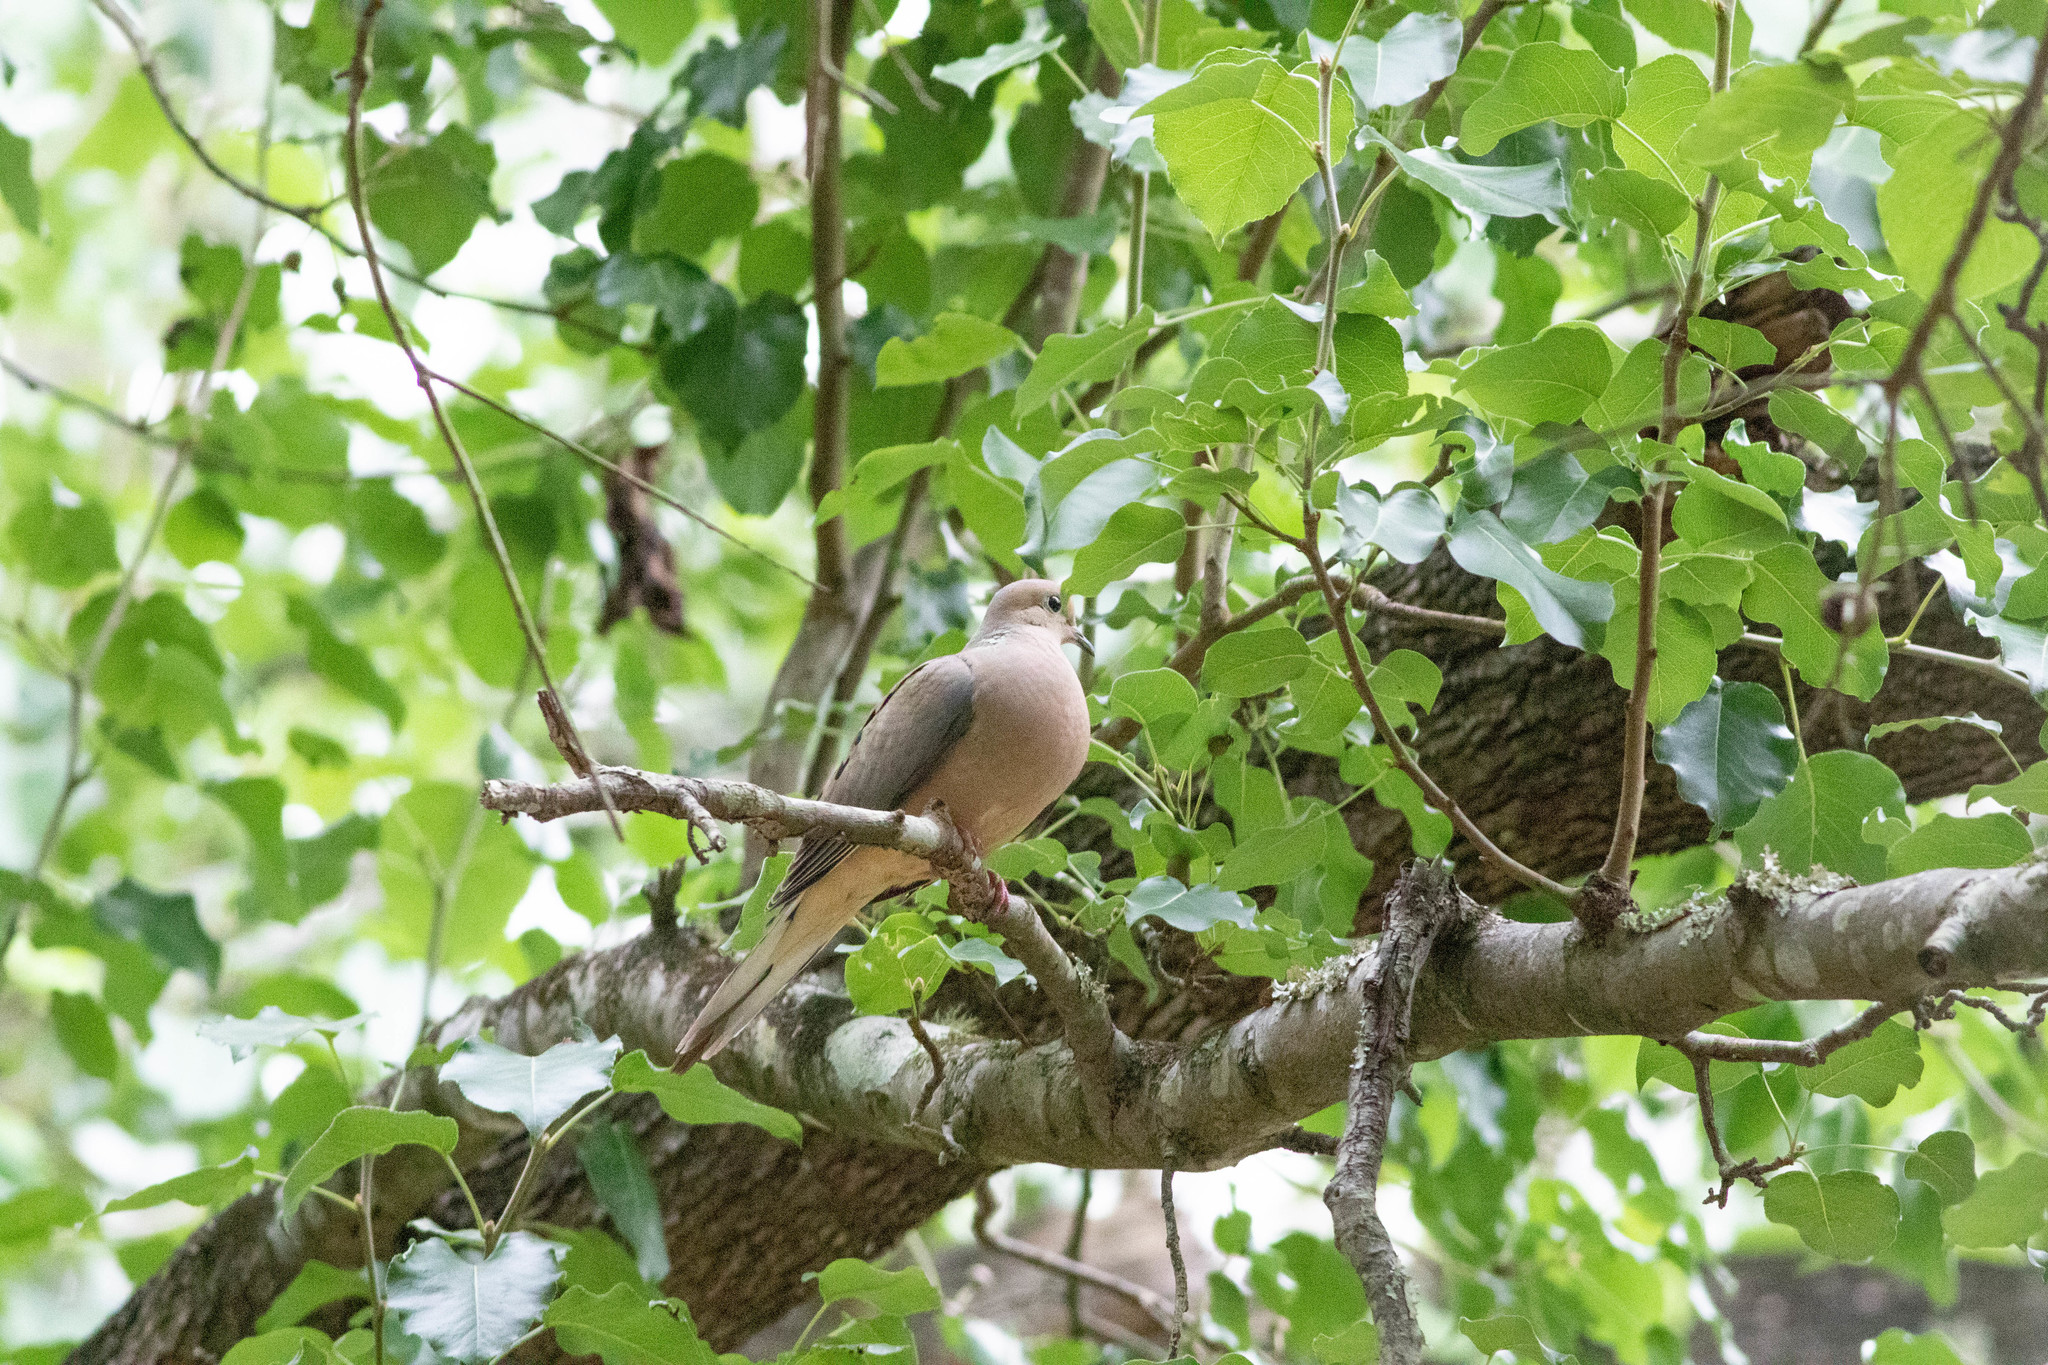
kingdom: Animalia
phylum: Chordata
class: Aves
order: Columbiformes
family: Columbidae
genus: Zenaida
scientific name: Zenaida macroura
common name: Mourning dove
